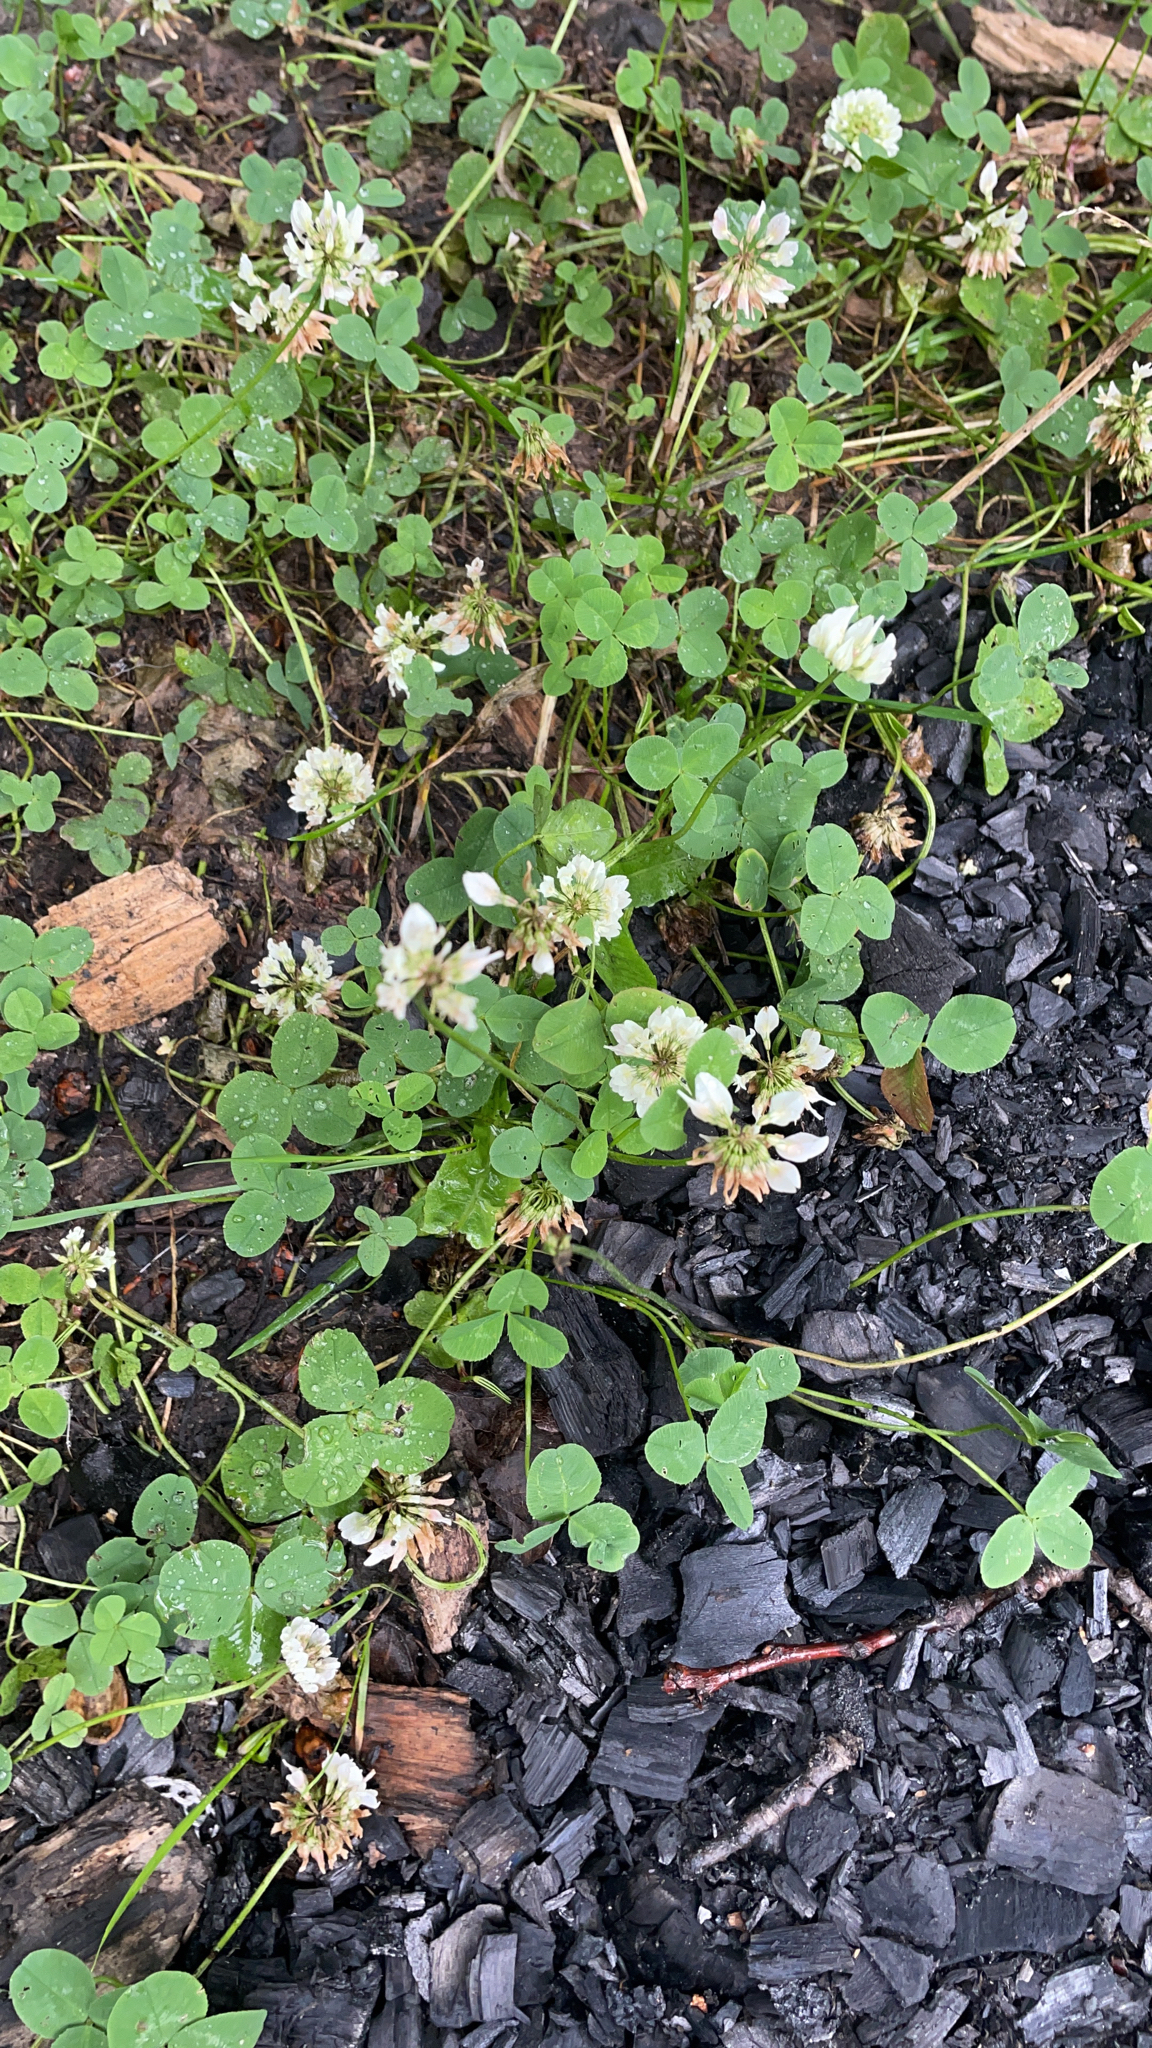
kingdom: Plantae
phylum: Tracheophyta
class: Magnoliopsida
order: Fabales
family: Fabaceae
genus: Trifolium
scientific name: Trifolium repens
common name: White clover
